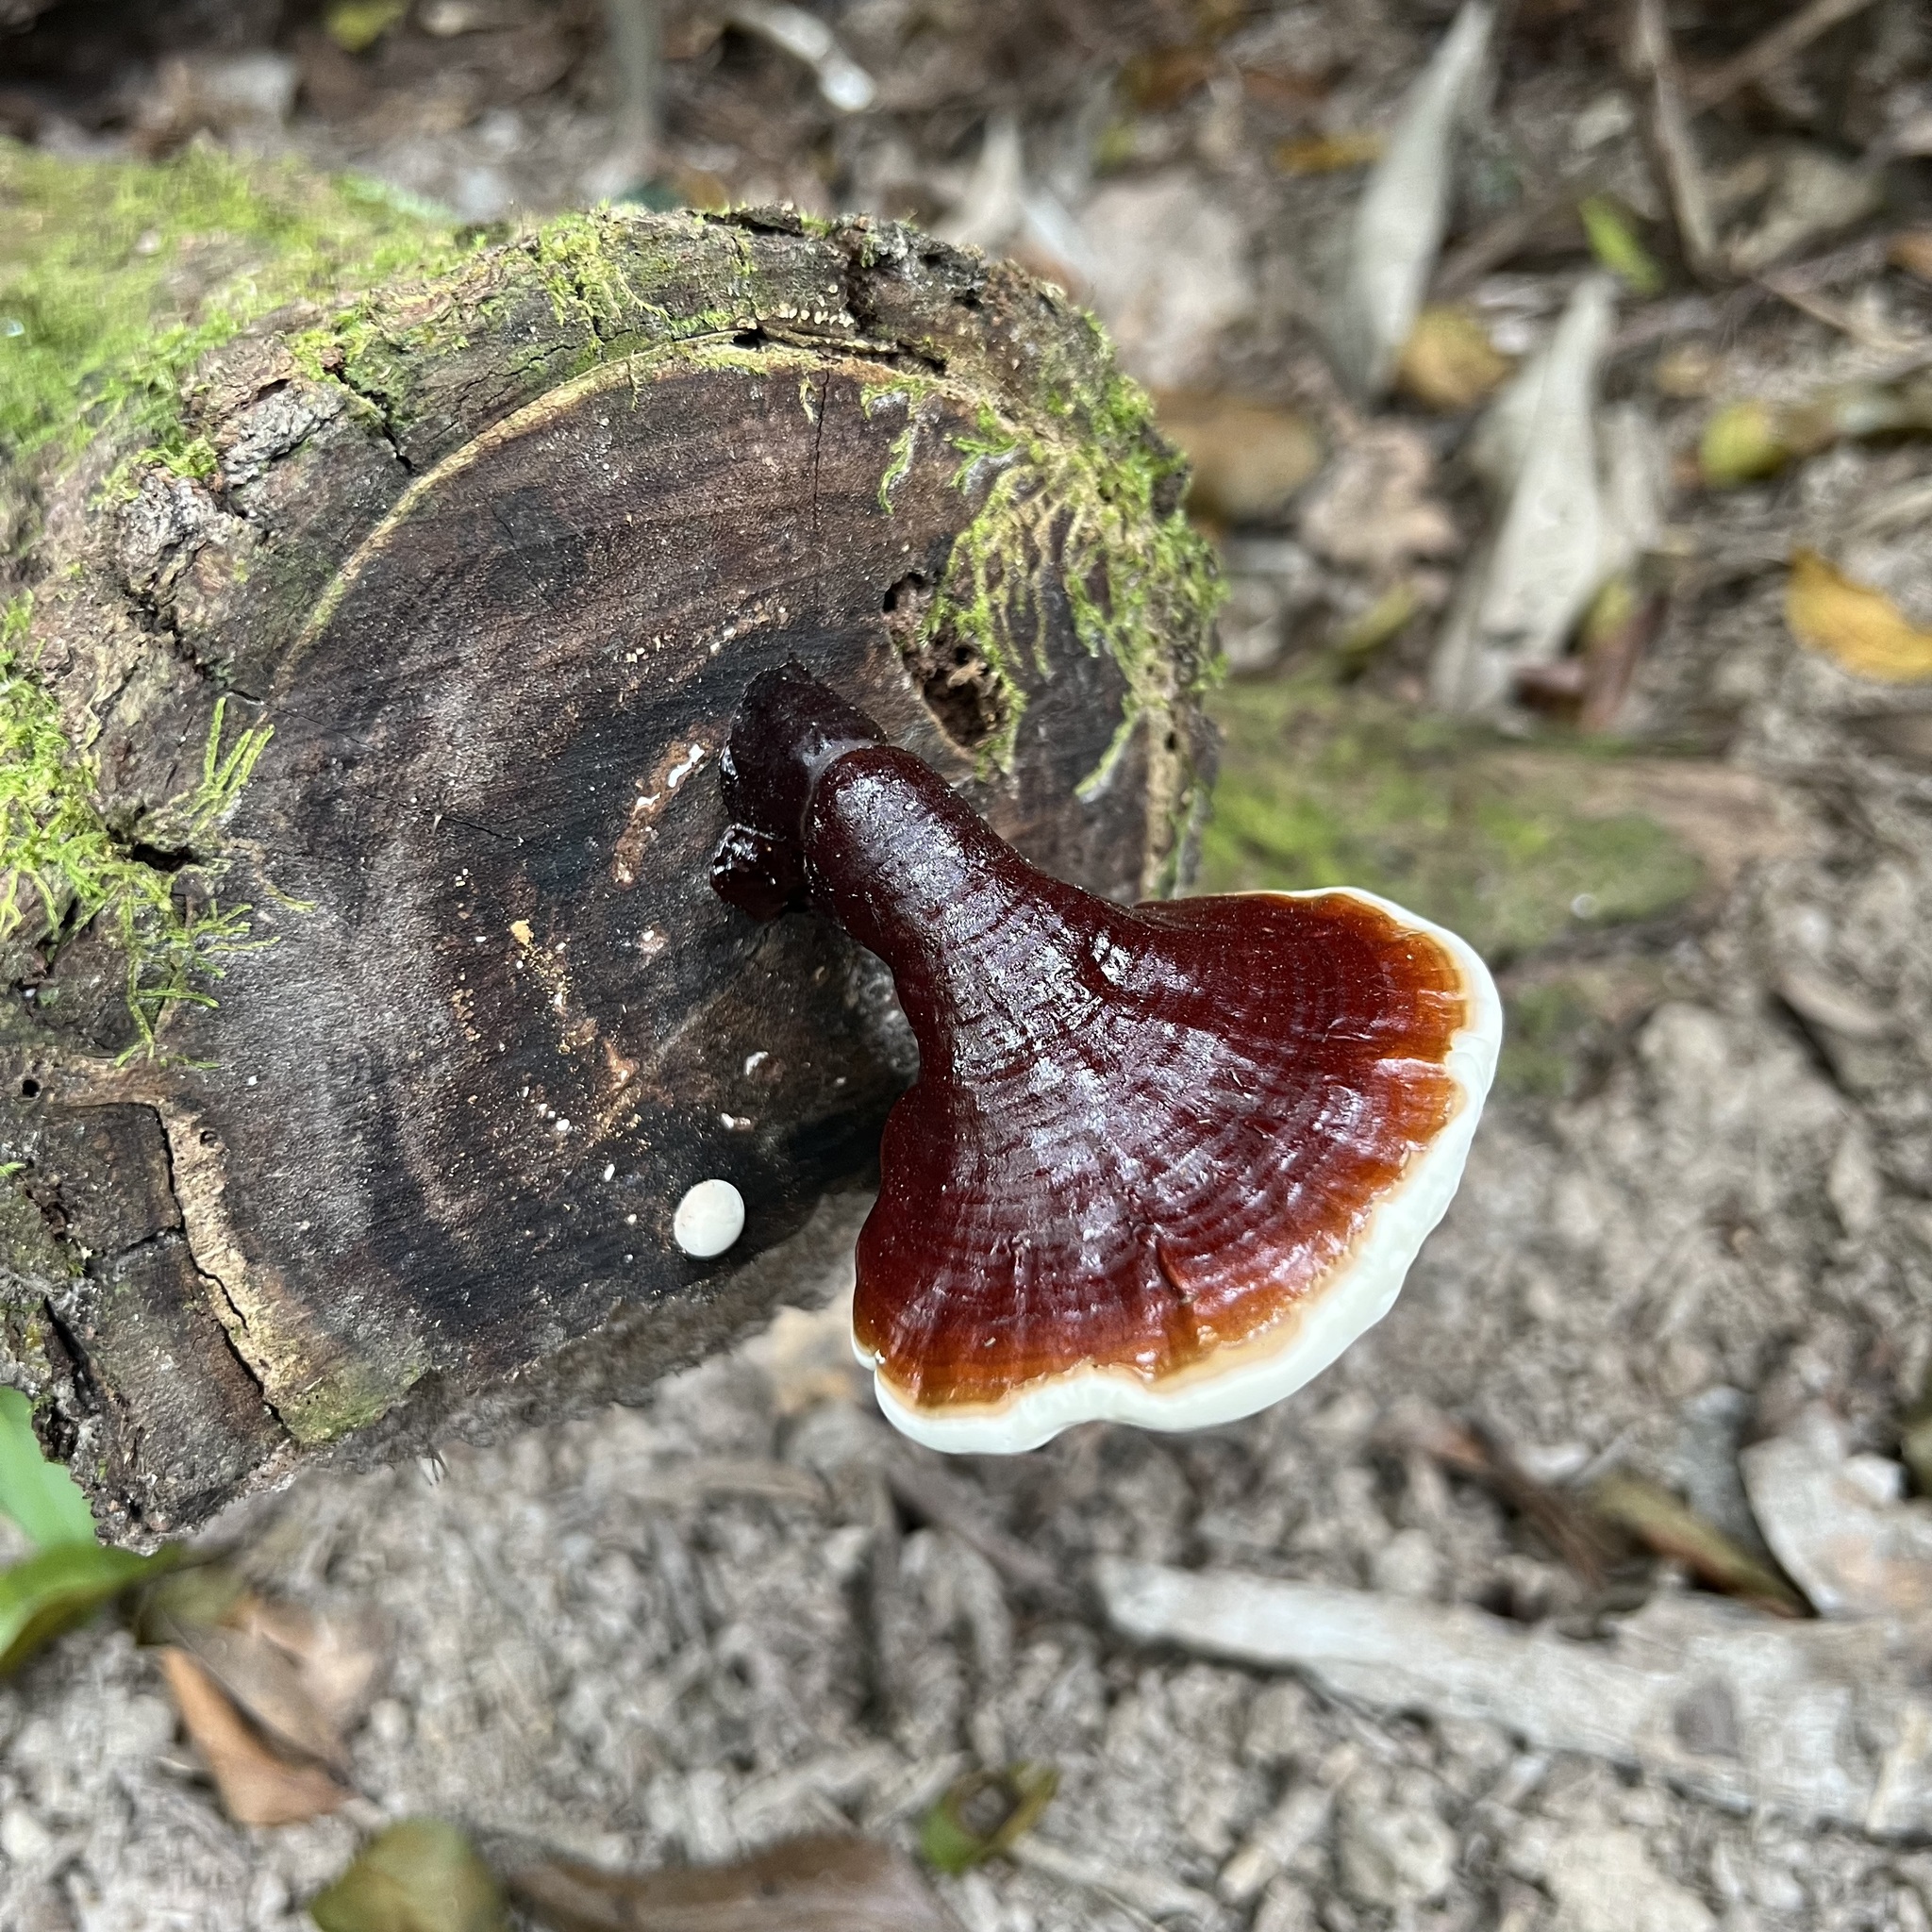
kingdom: Fungi
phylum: Basidiomycota
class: Agaricomycetes
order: Polyporales
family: Polyporaceae
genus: Ganoderma
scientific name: Ganoderma boninense
